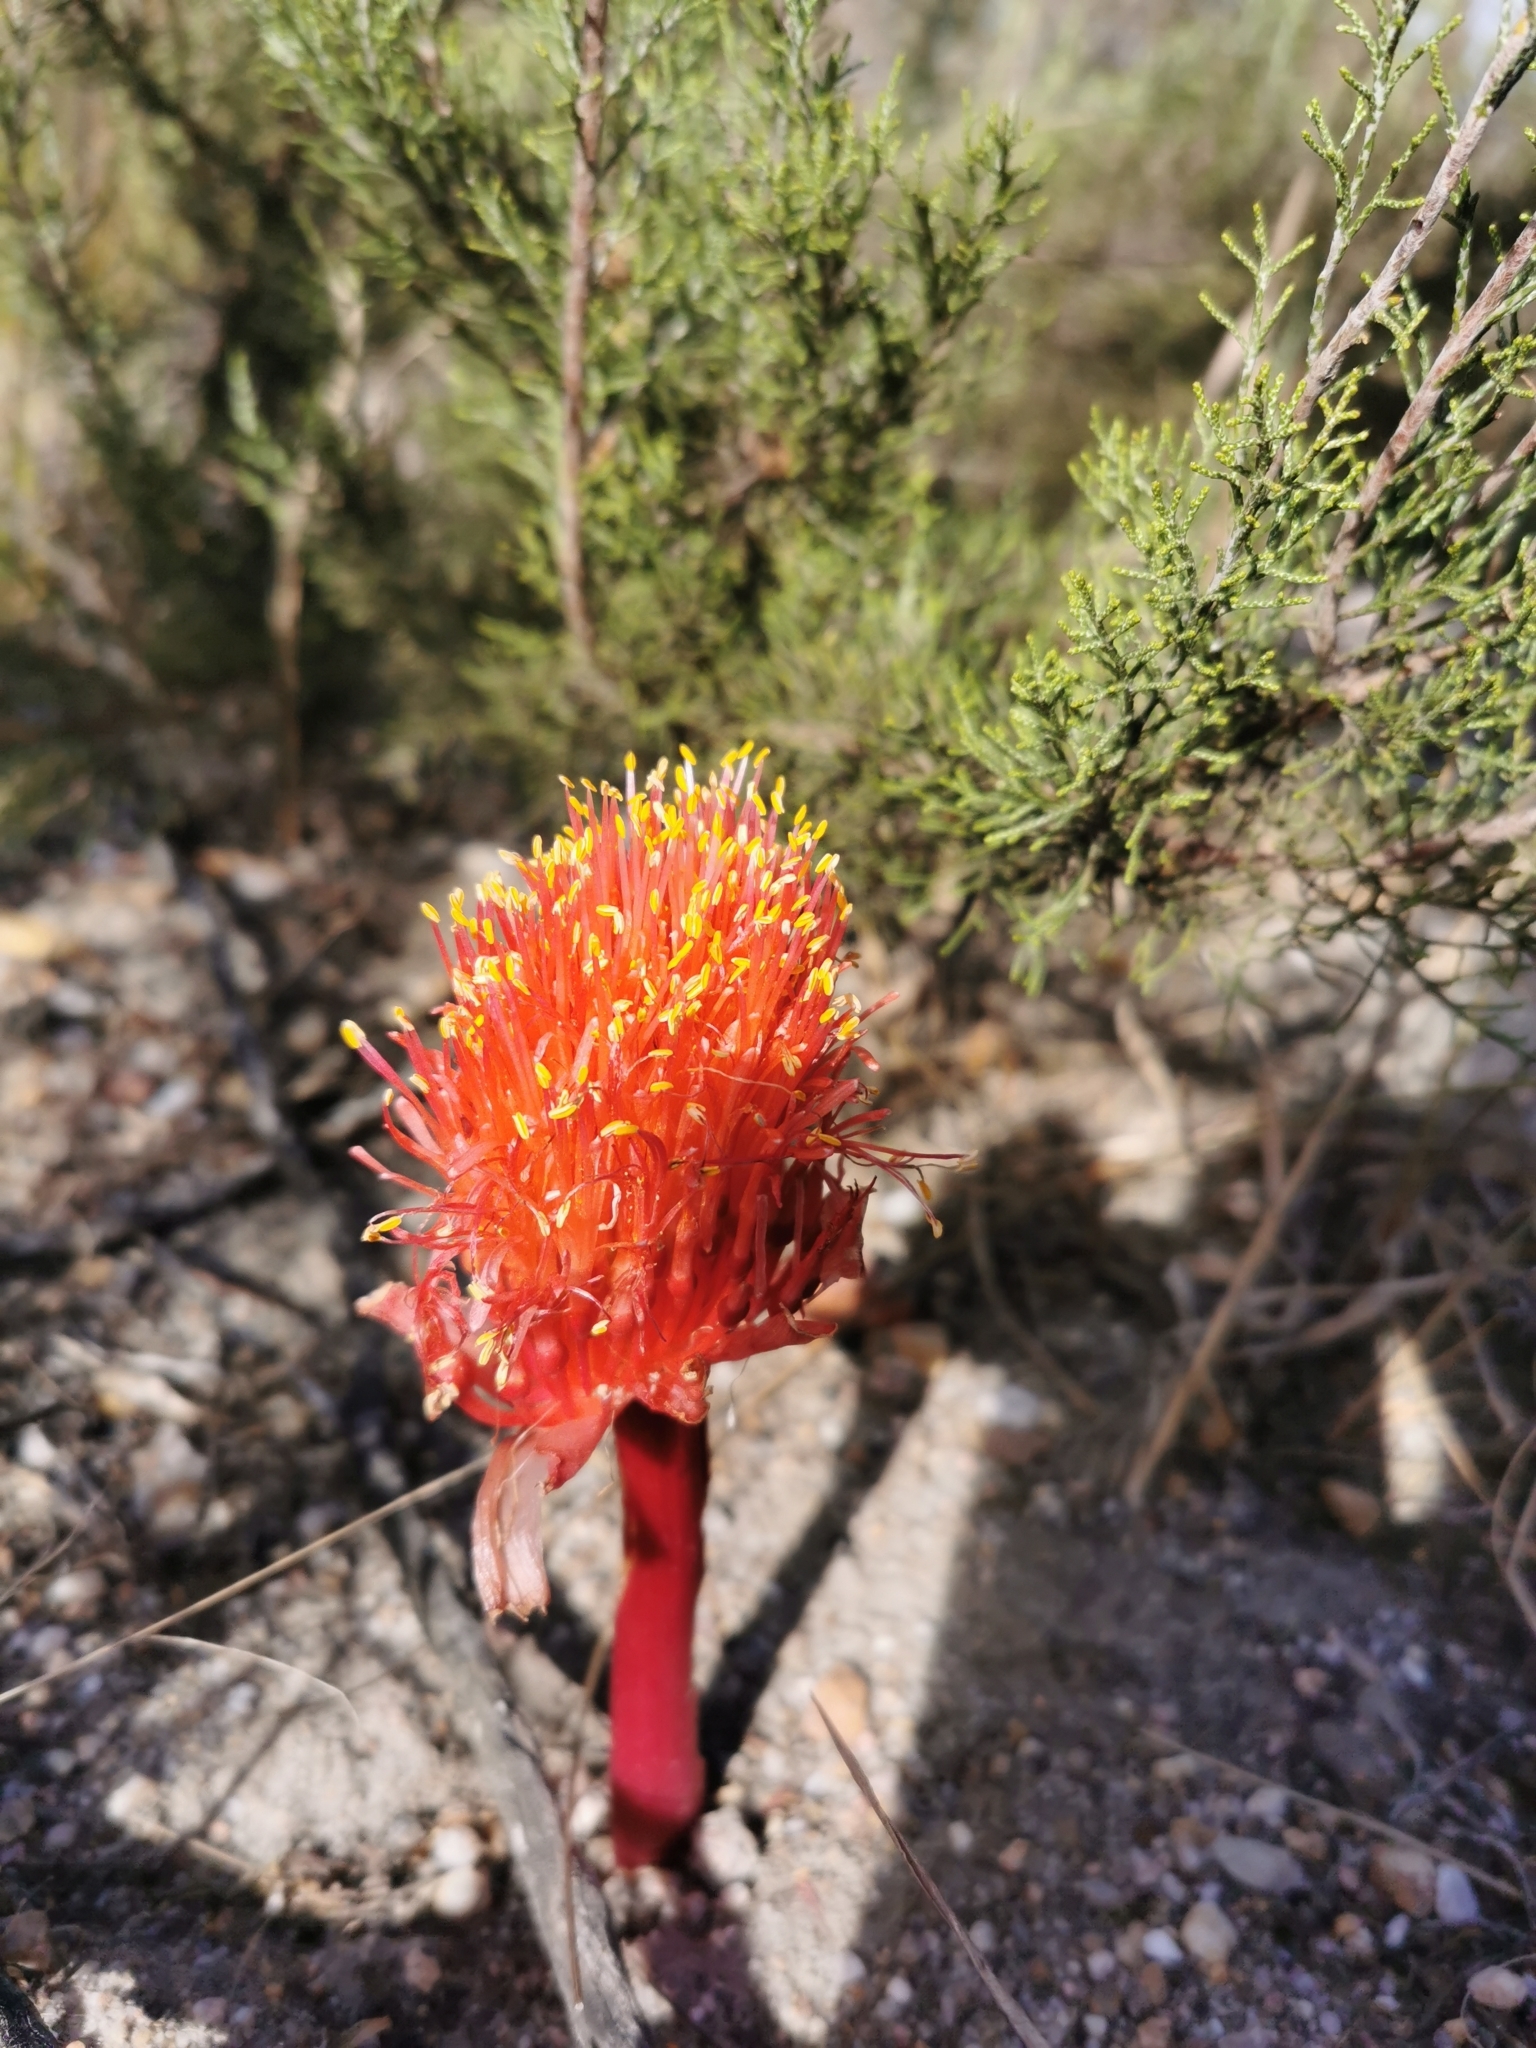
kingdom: Plantae
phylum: Tracheophyta
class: Liliopsida
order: Asparagales
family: Amaryllidaceae
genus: Haemanthus
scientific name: Haemanthus sanguineus
